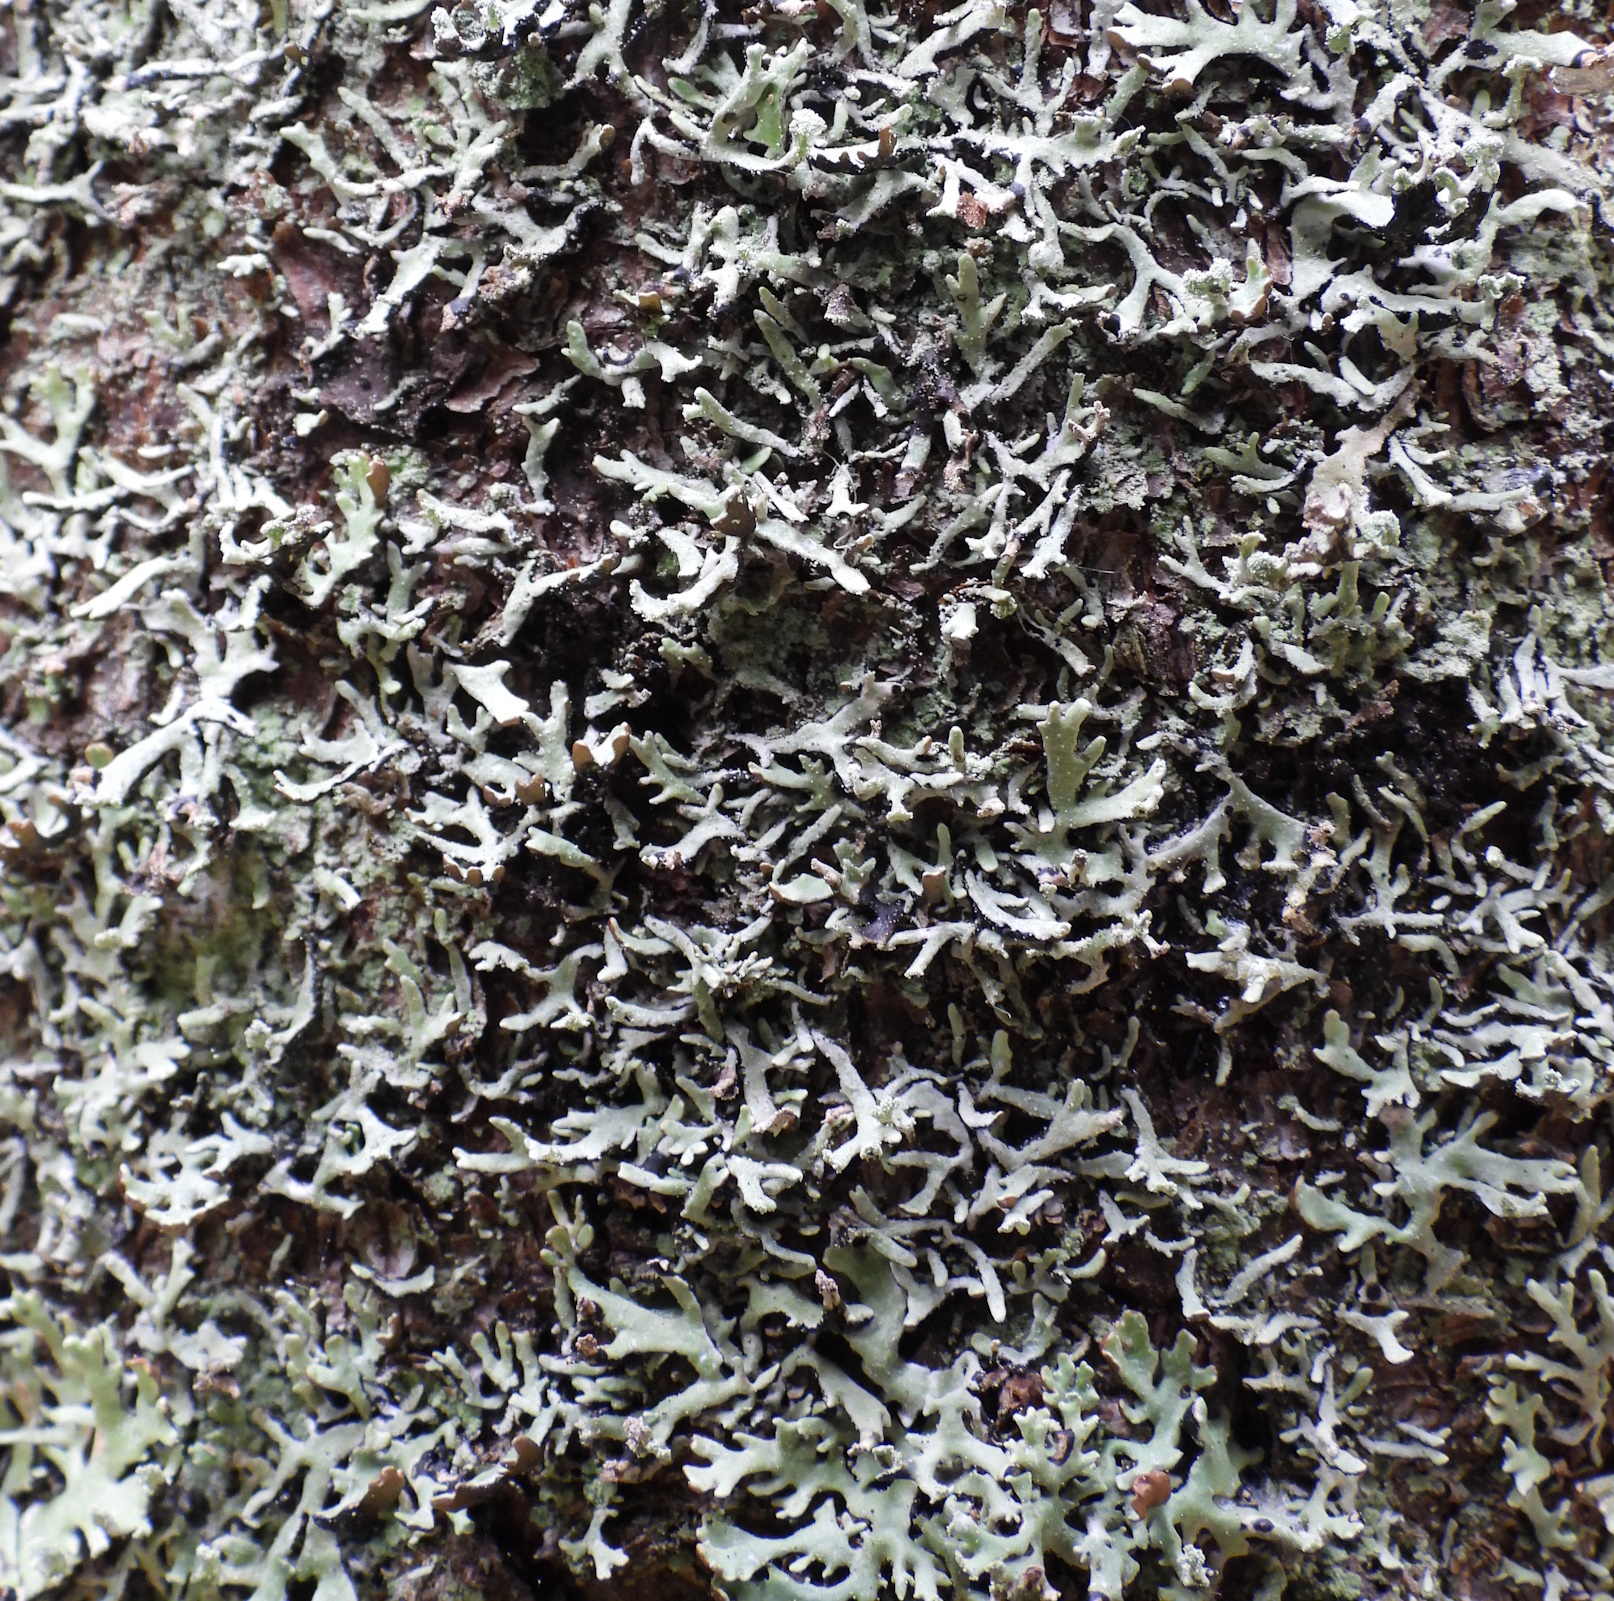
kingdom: Fungi
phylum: Ascomycota
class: Lecanoromycetes
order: Lecanorales
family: Parmeliaceae
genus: Hypogymnia
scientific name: Hypogymnia physodes
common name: Dark crottle
